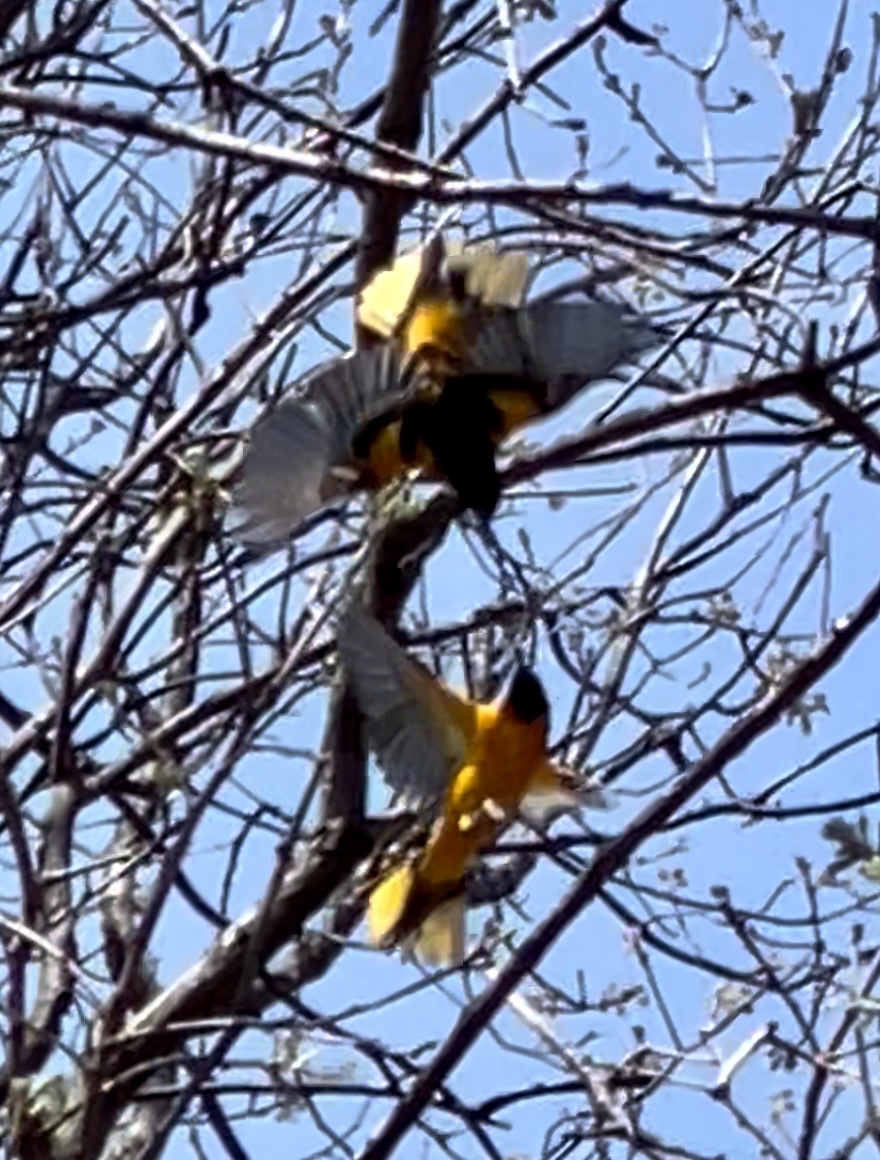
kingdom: Animalia
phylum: Chordata
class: Aves
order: Passeriformes
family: Icteridae
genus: Icterus
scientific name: Icterus galbula
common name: Baltimore oriole
